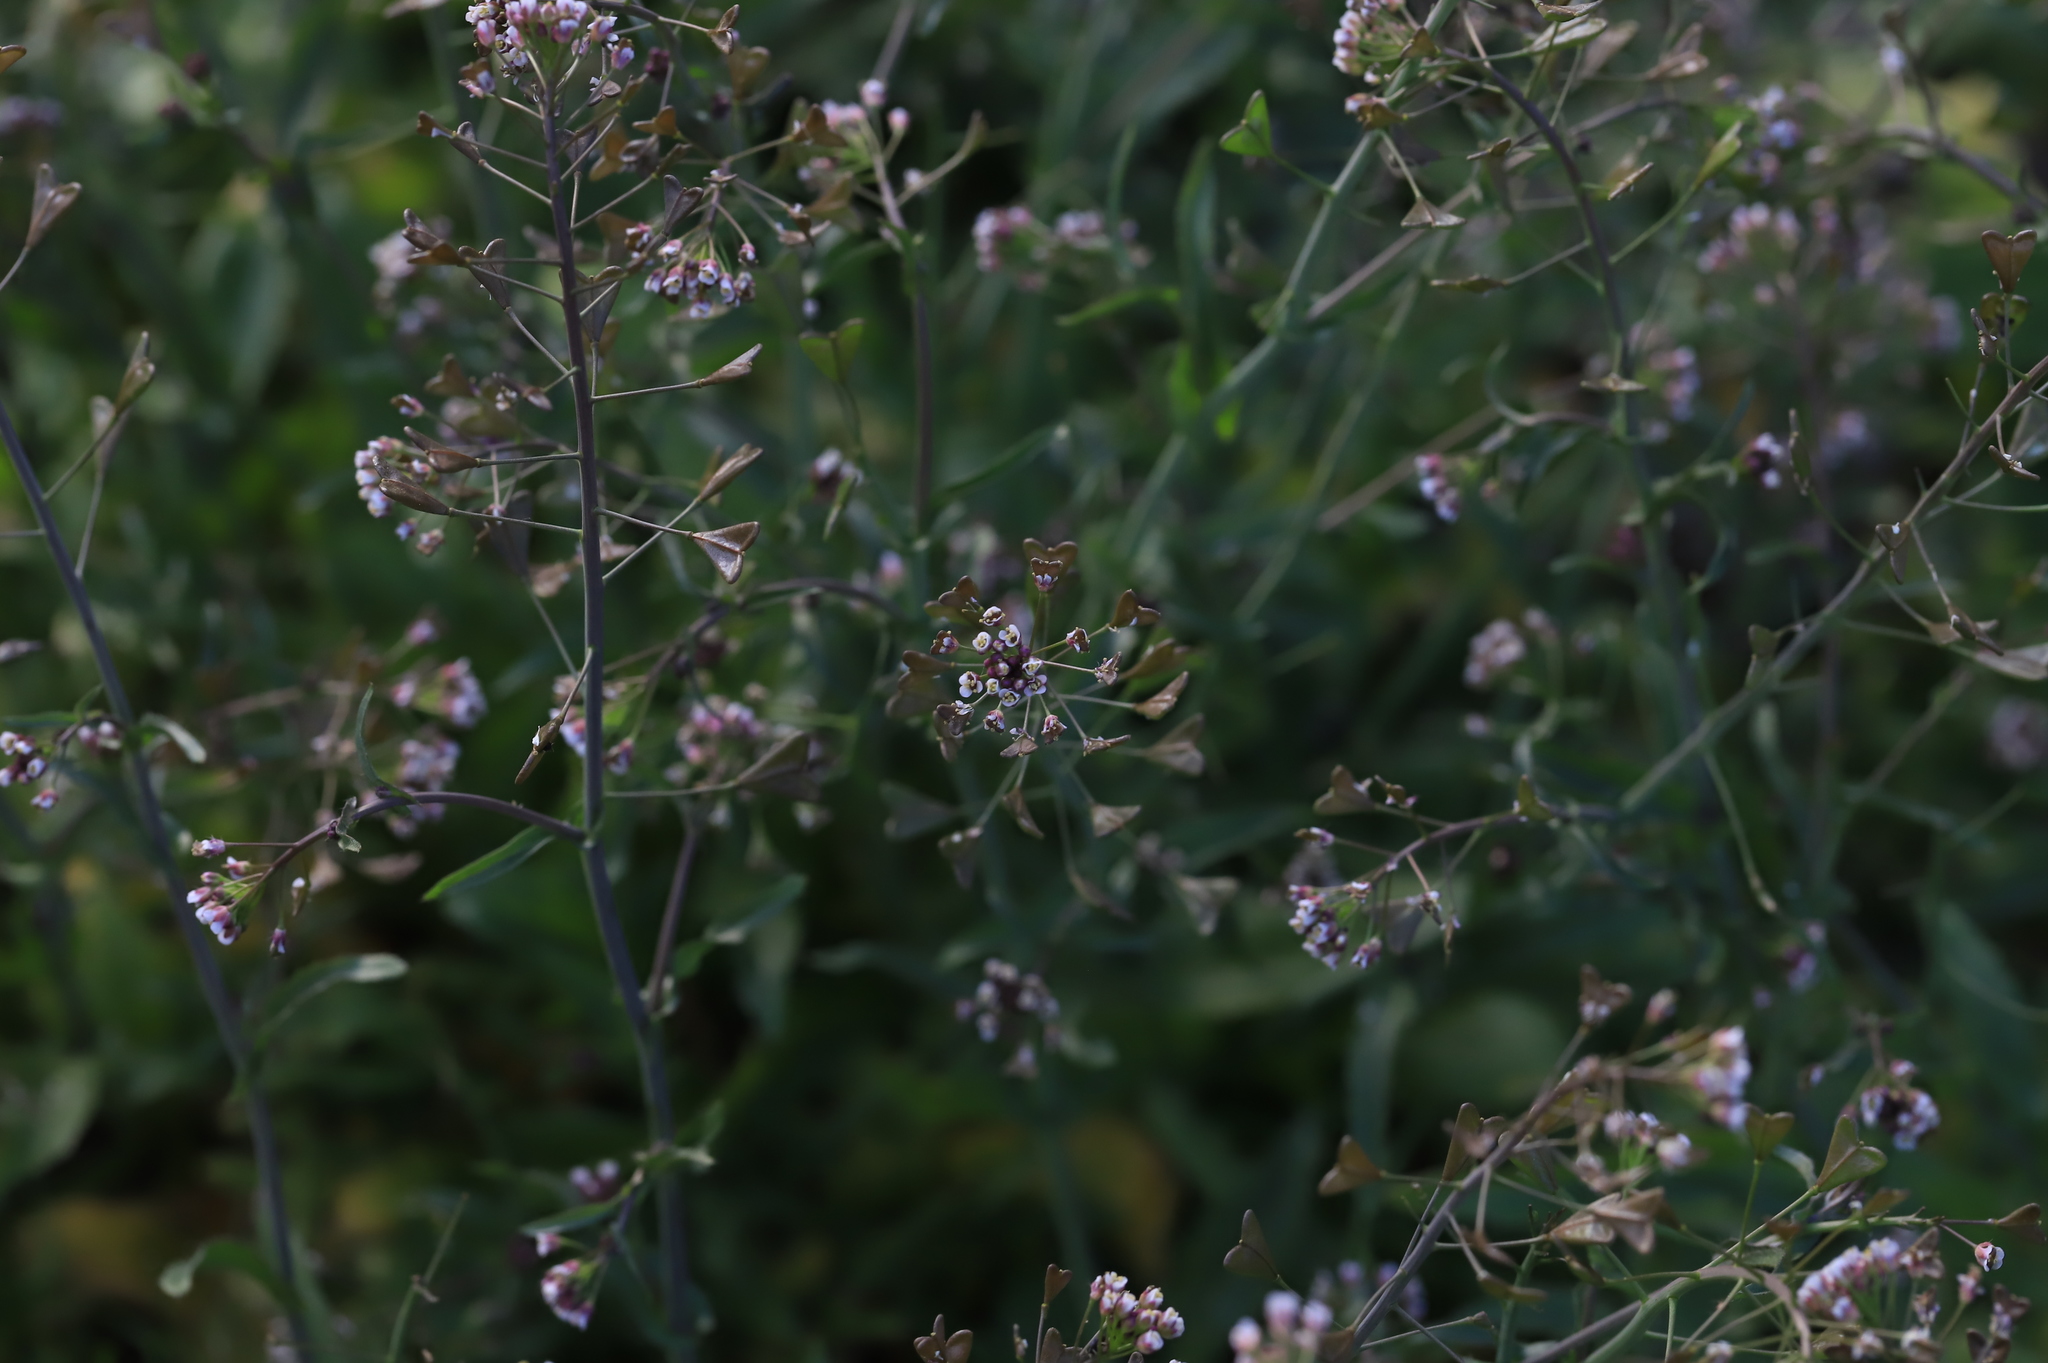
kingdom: Plantae
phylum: Tracheophyta
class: Magnoliopsida
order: Brassicales
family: Brassicaceae
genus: Capsella
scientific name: Capsella bursa-pastoris
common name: Shepherd's purse
